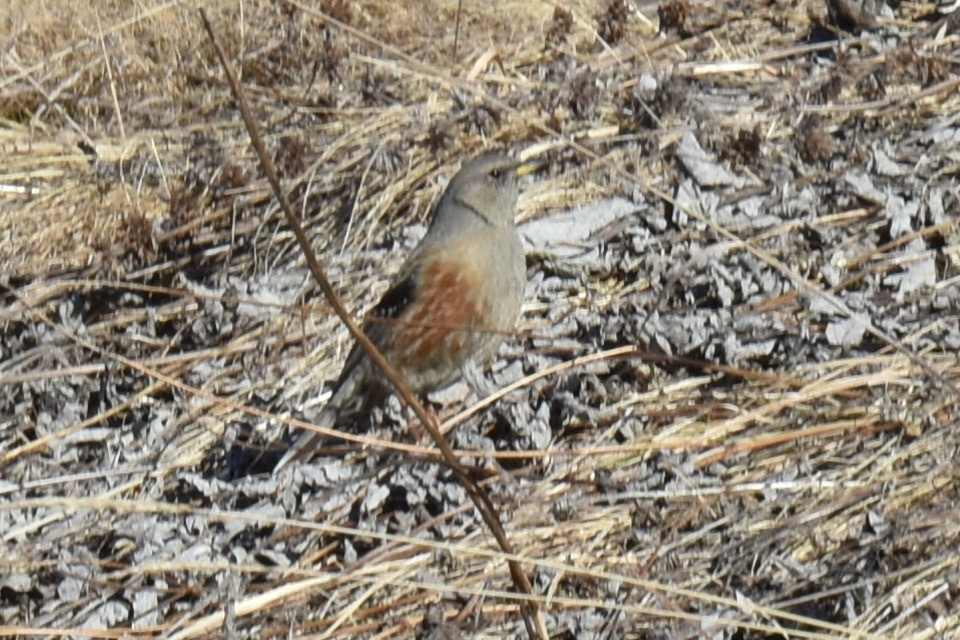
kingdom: Animalia
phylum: Chordata
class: Aves
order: Passeriformes
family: Prunellidae
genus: Prunella
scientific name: Prunella collaris
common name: Alpine accentor
